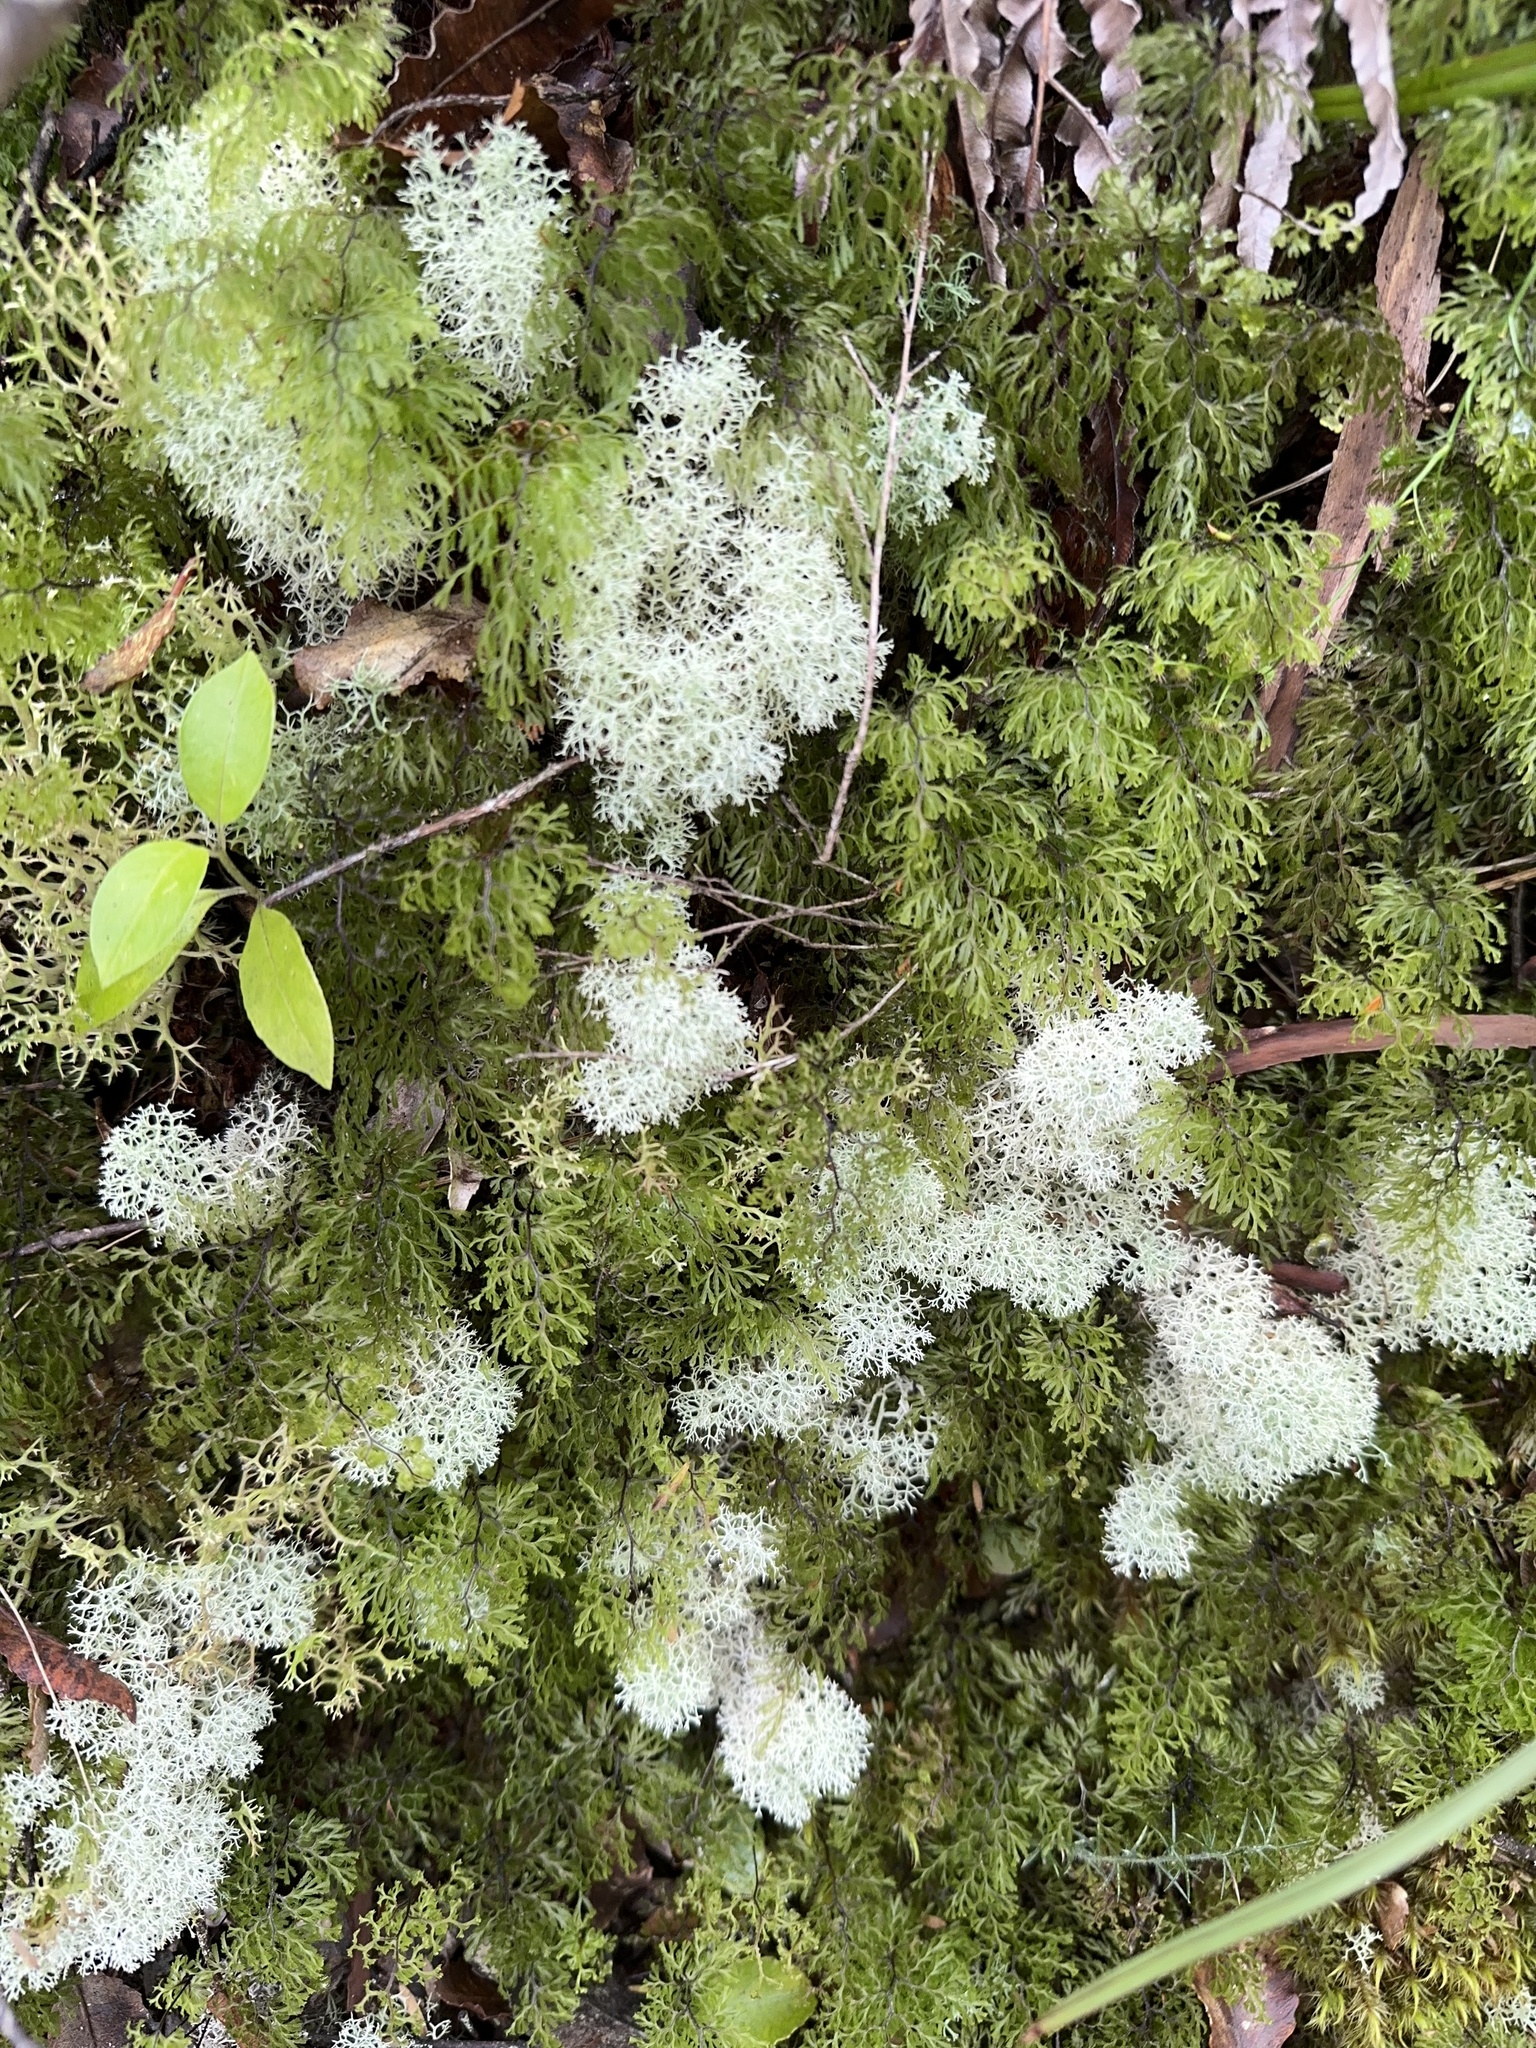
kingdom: Fungi
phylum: Ascomycota
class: Lecanoromycetes
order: Lecanorales
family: Cladoniaceae
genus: Cladonia
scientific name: Cladonia confusa
